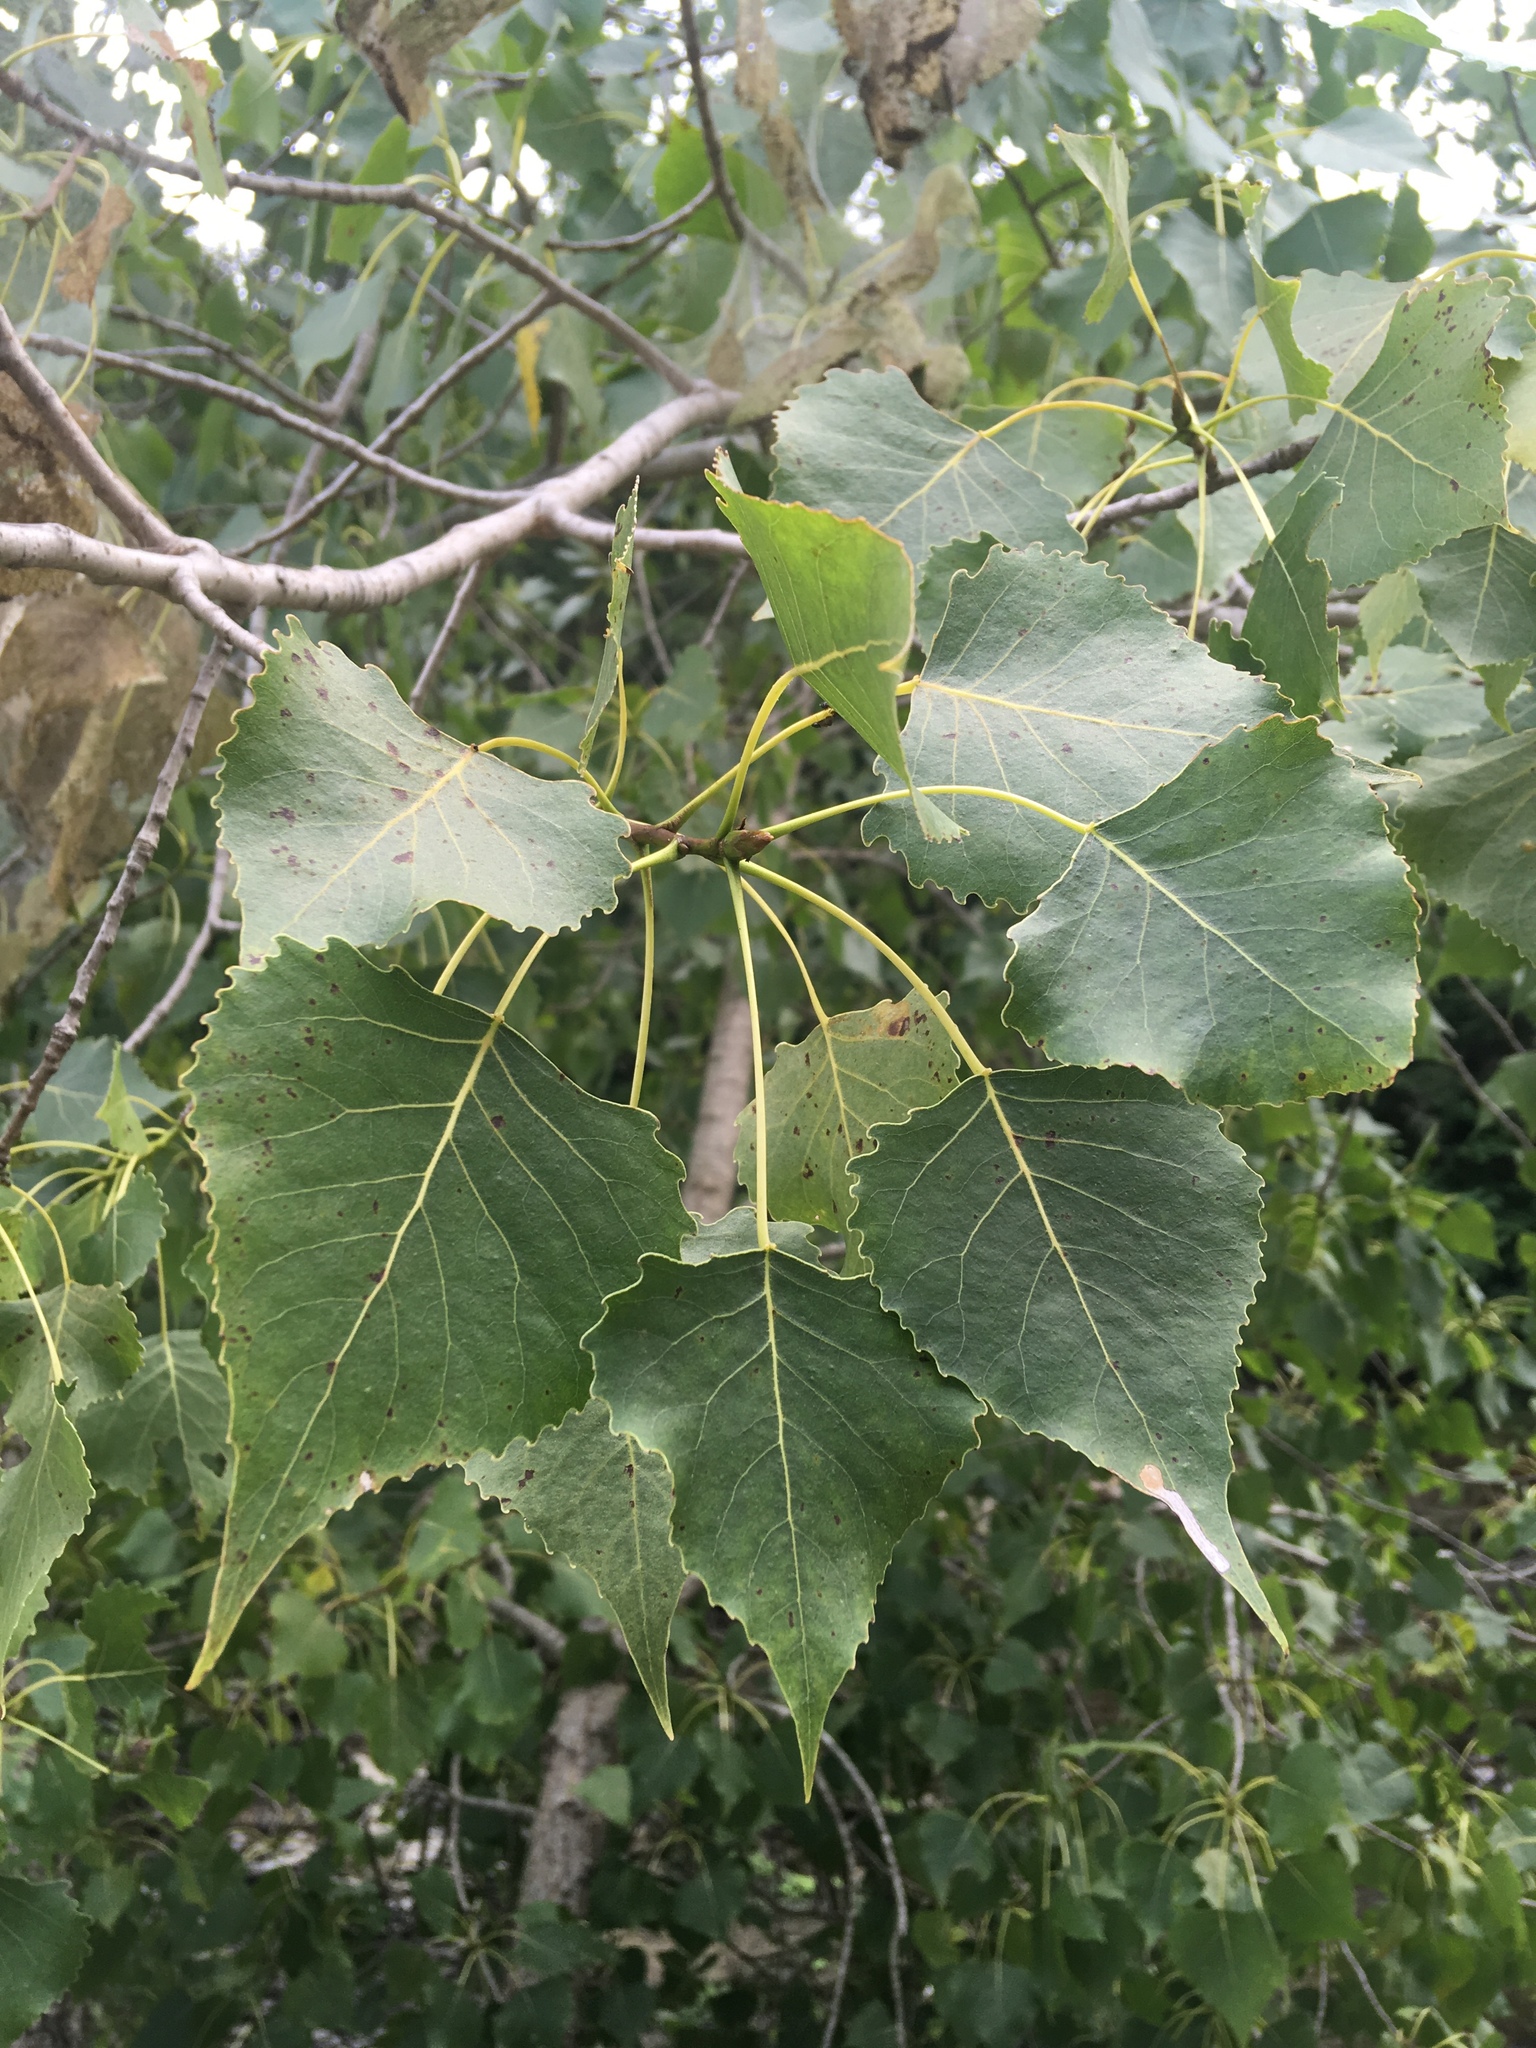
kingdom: Plantae
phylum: Tracheophyta
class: Magnoliopsida
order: Malpighiales
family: Salicaceae
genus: Populus
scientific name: Populus deltoides
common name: Eastern cottonwood
